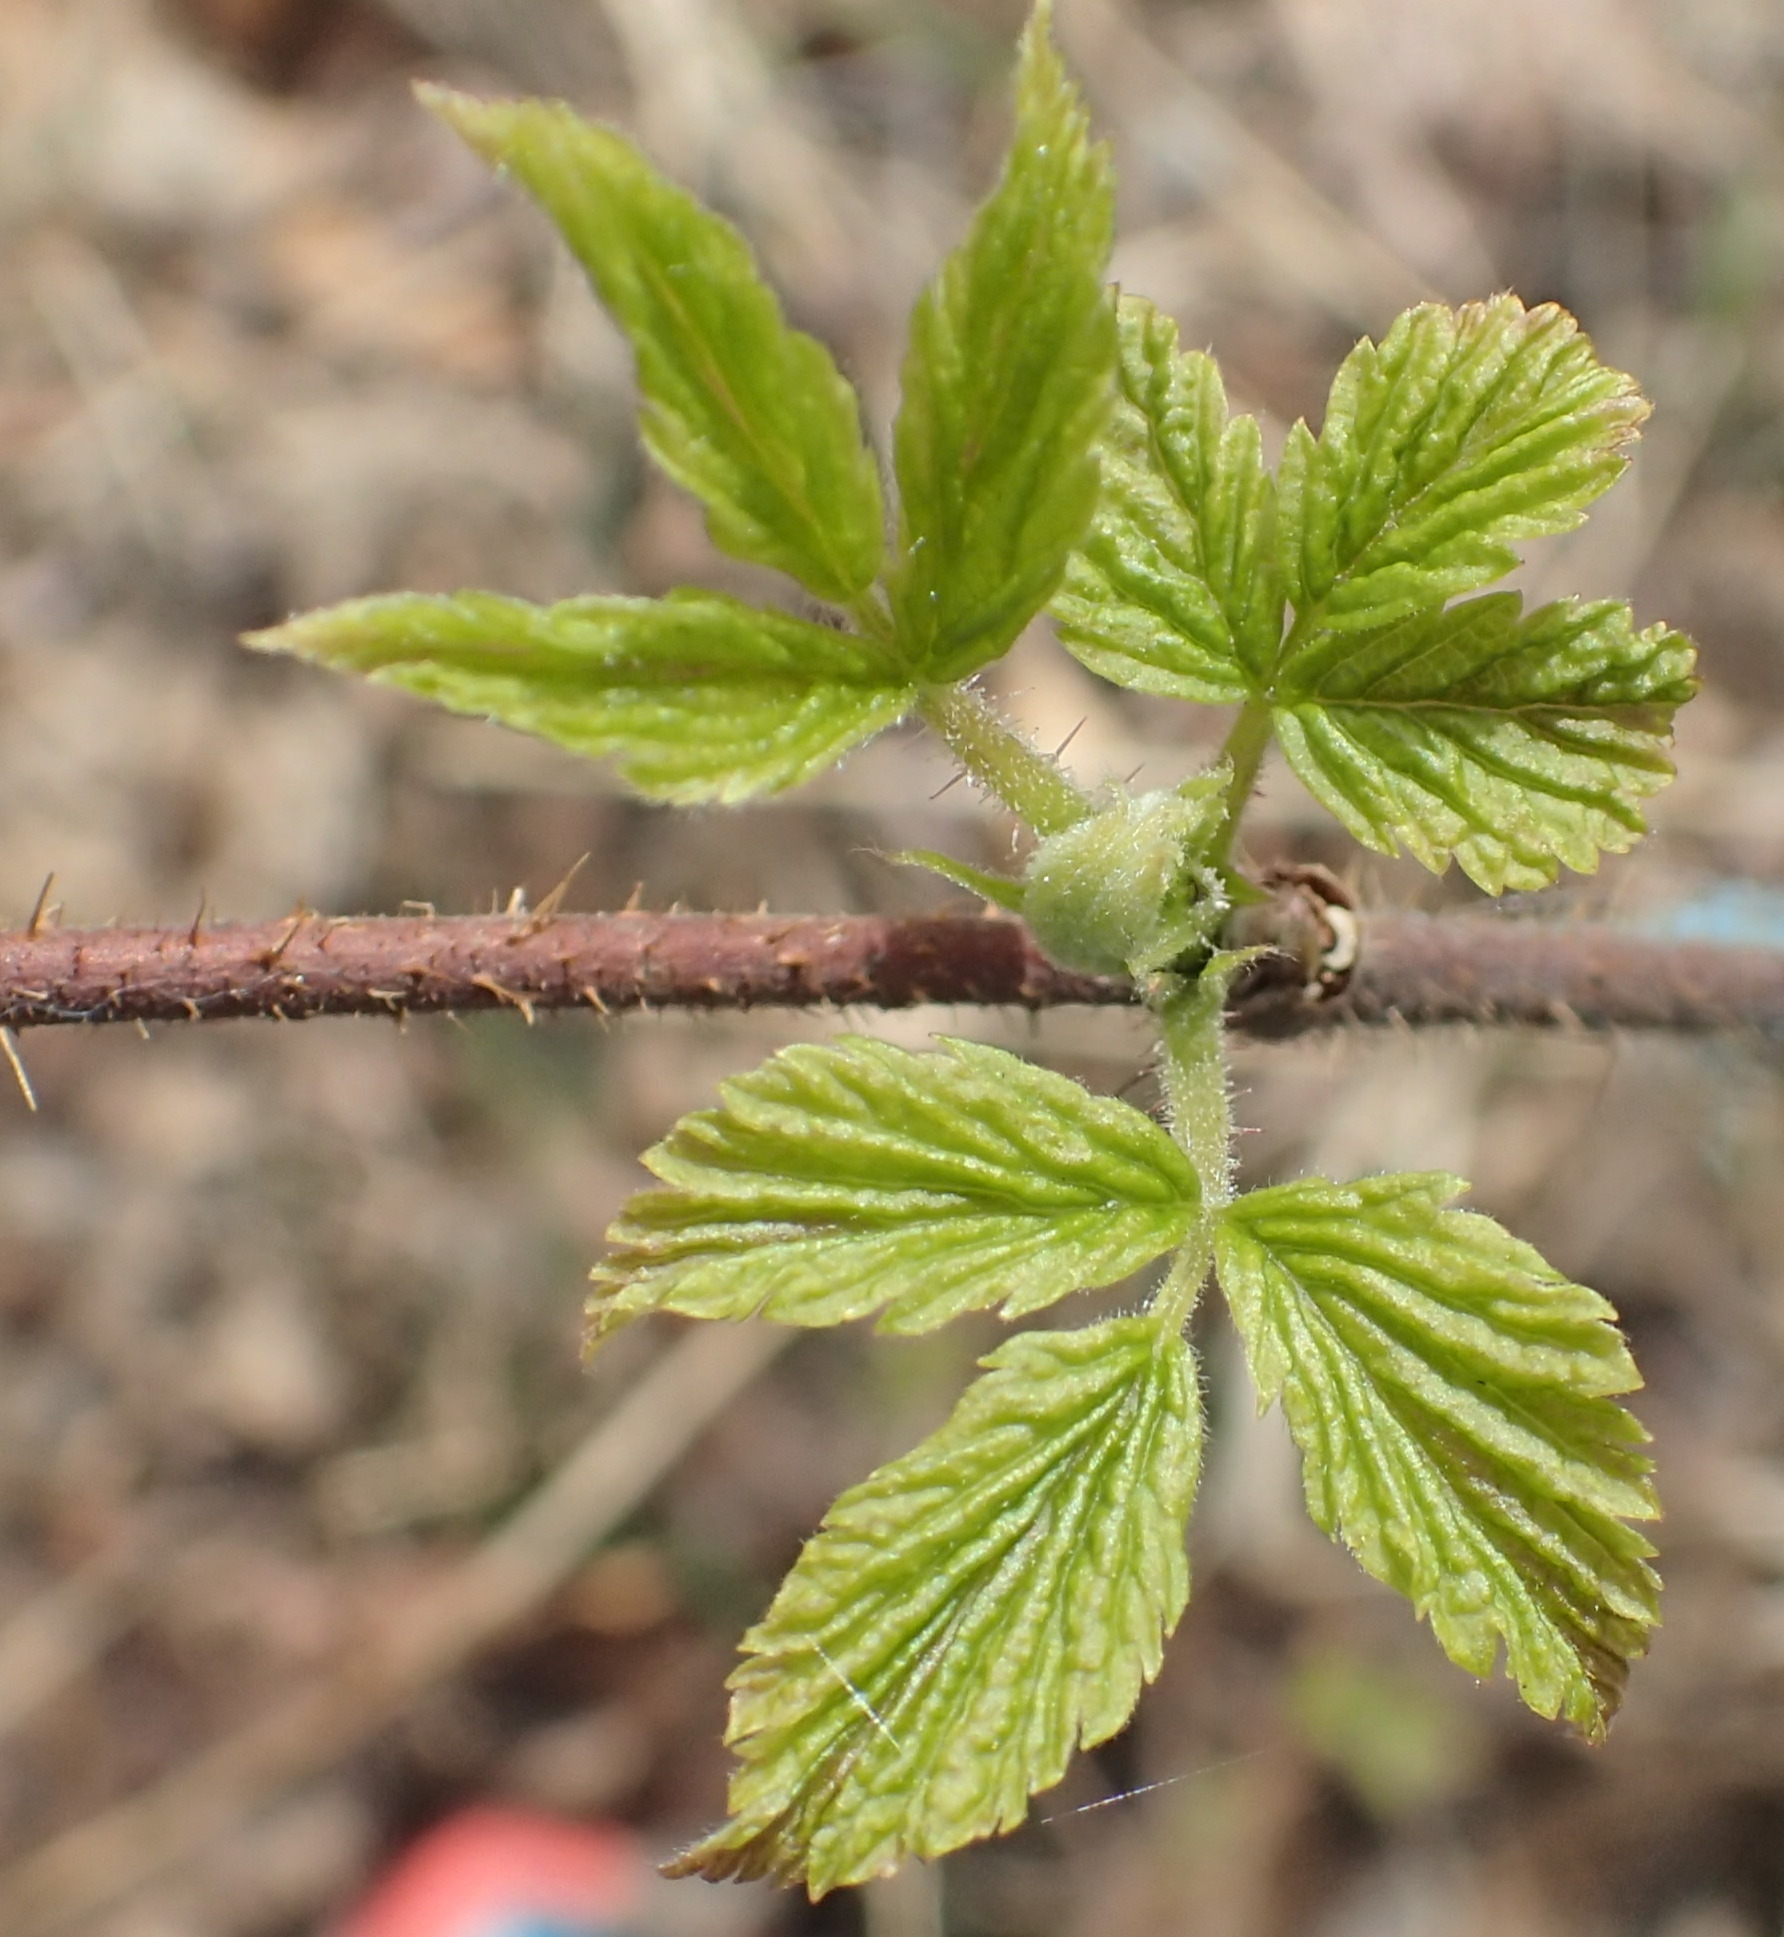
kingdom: Plantae
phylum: Tracheophyta
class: Magnoliopsida
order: Rosales
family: Rosaceae
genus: Rubus
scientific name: Rubus spectabilis
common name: Salmonberry
